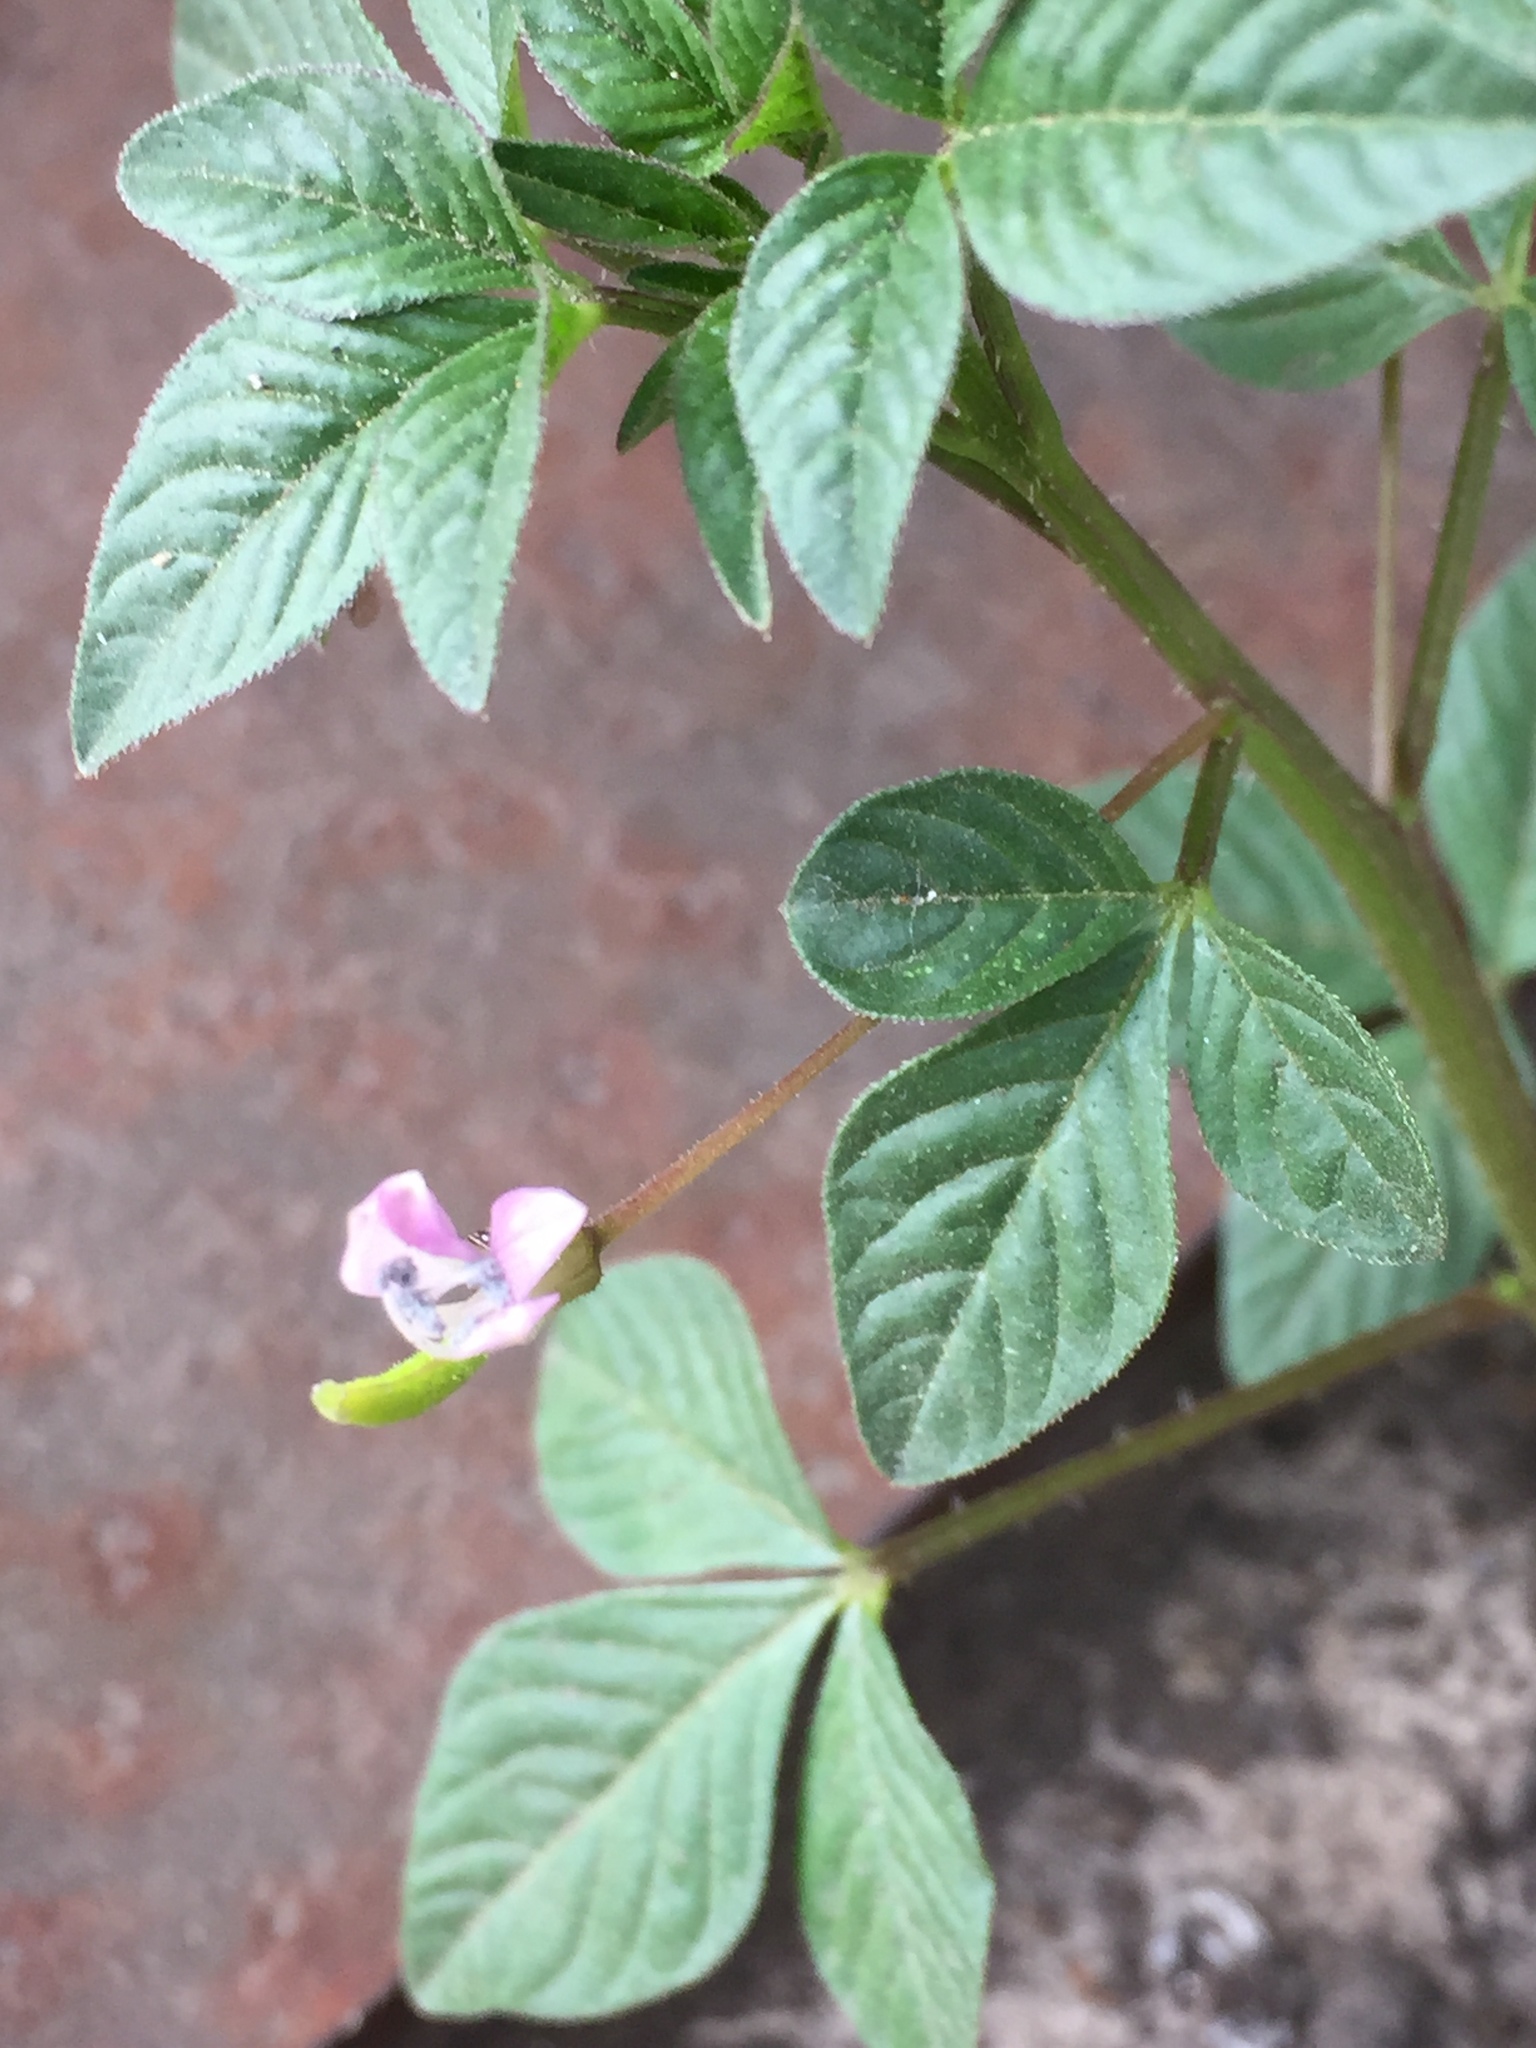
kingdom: Plantae
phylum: Tracheophyta
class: Magnoliopsida
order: Brassicales
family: Cleomaceae
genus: Sieruela
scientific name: Sieruela rutidosperma
